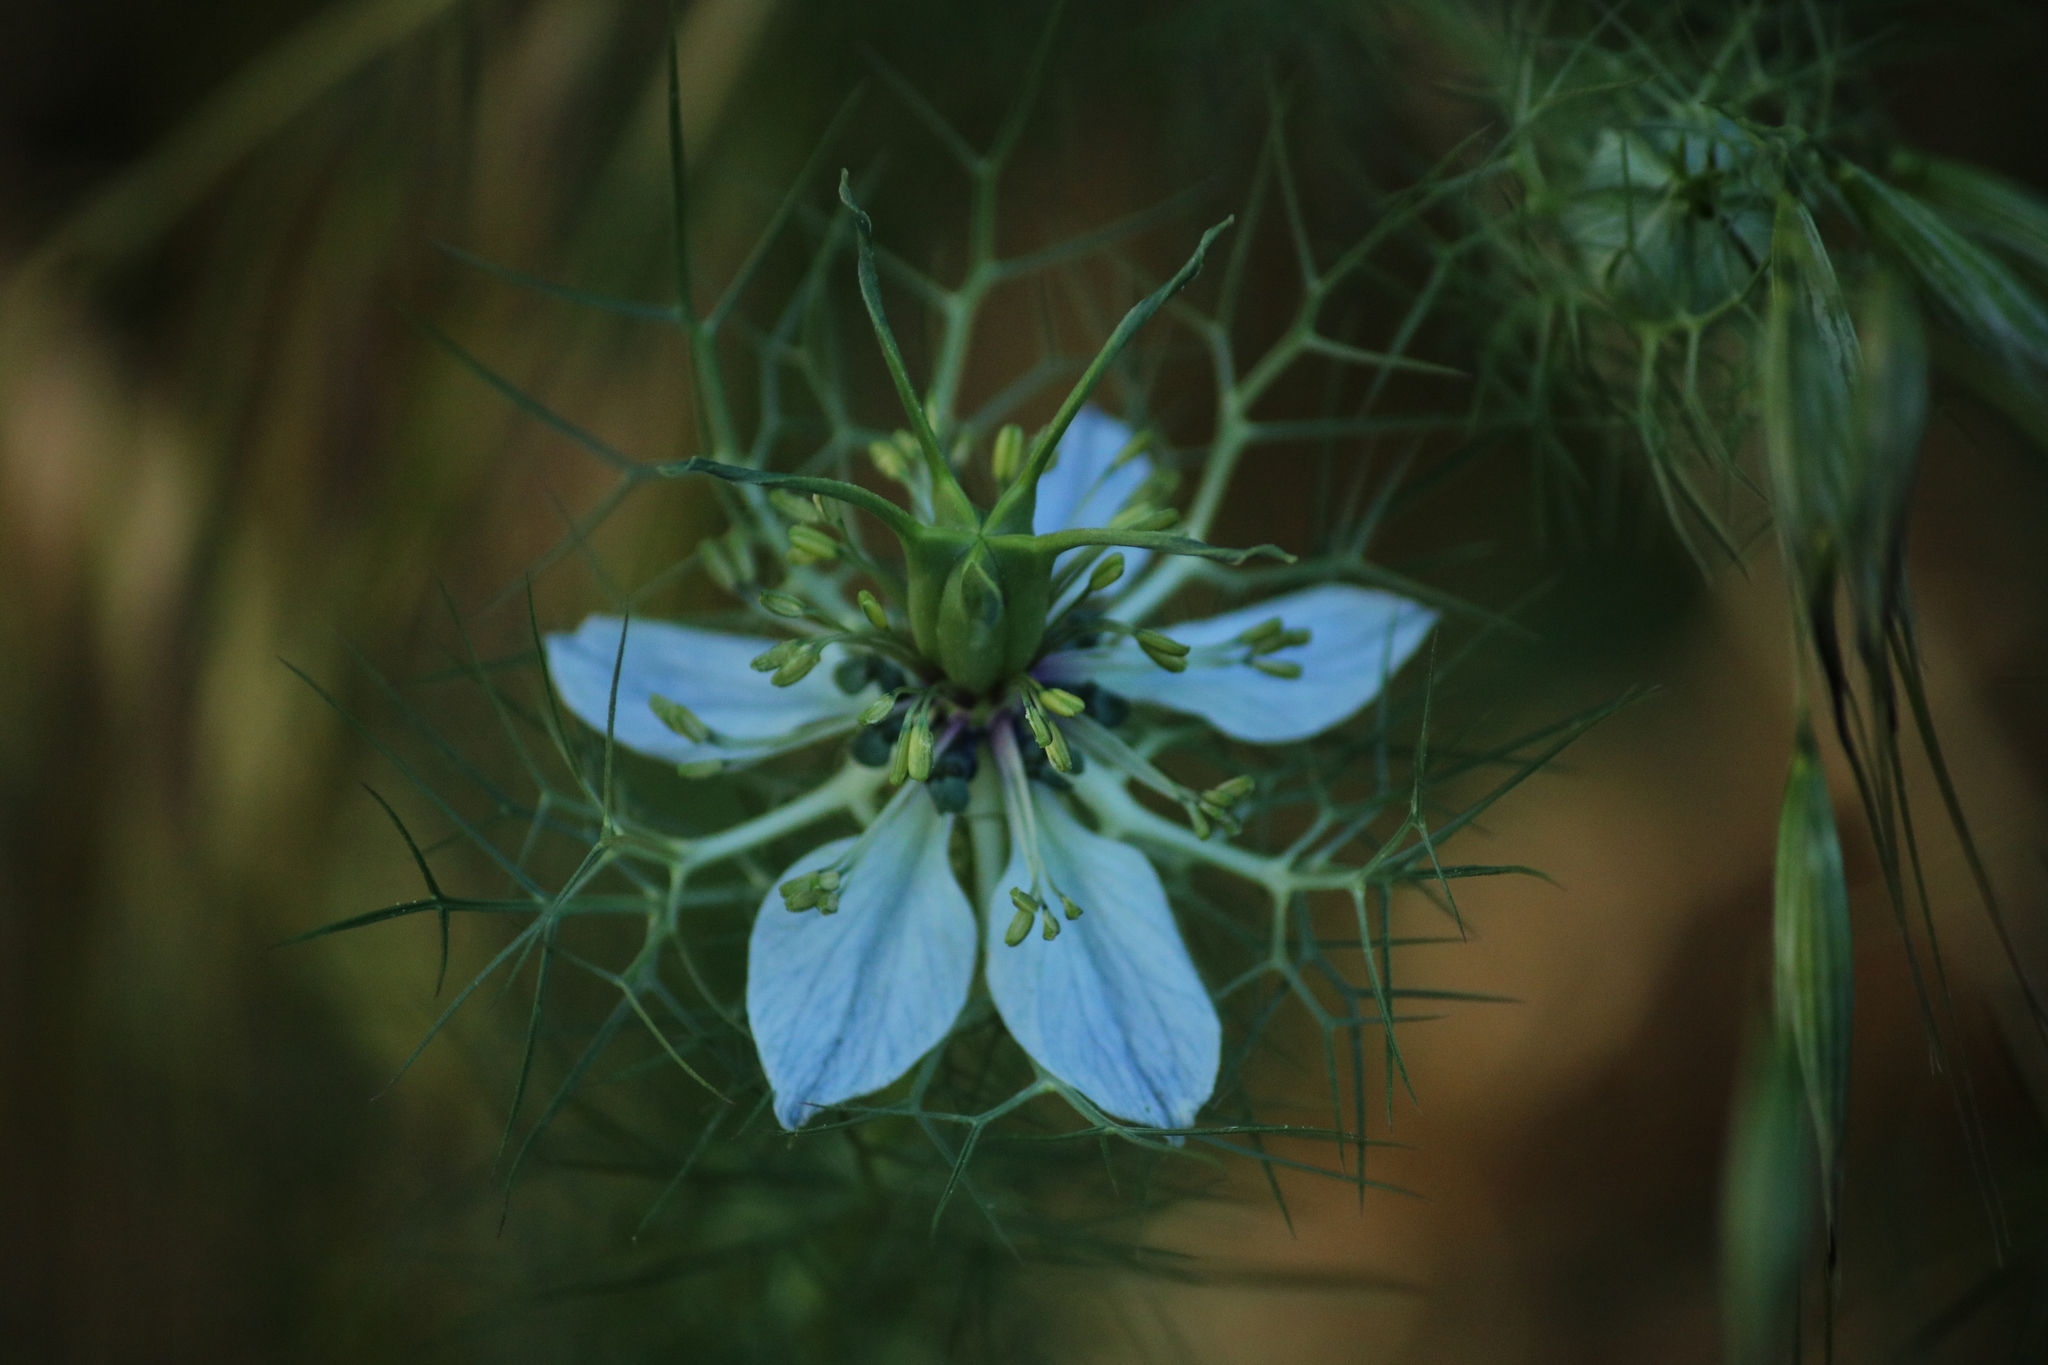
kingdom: Plantae
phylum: Tracheophyta
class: Magnoliopsida
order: Ranunculales
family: Ranunculaceae
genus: Nigella
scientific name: Nigella damascena
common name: Love-in-a-mist
